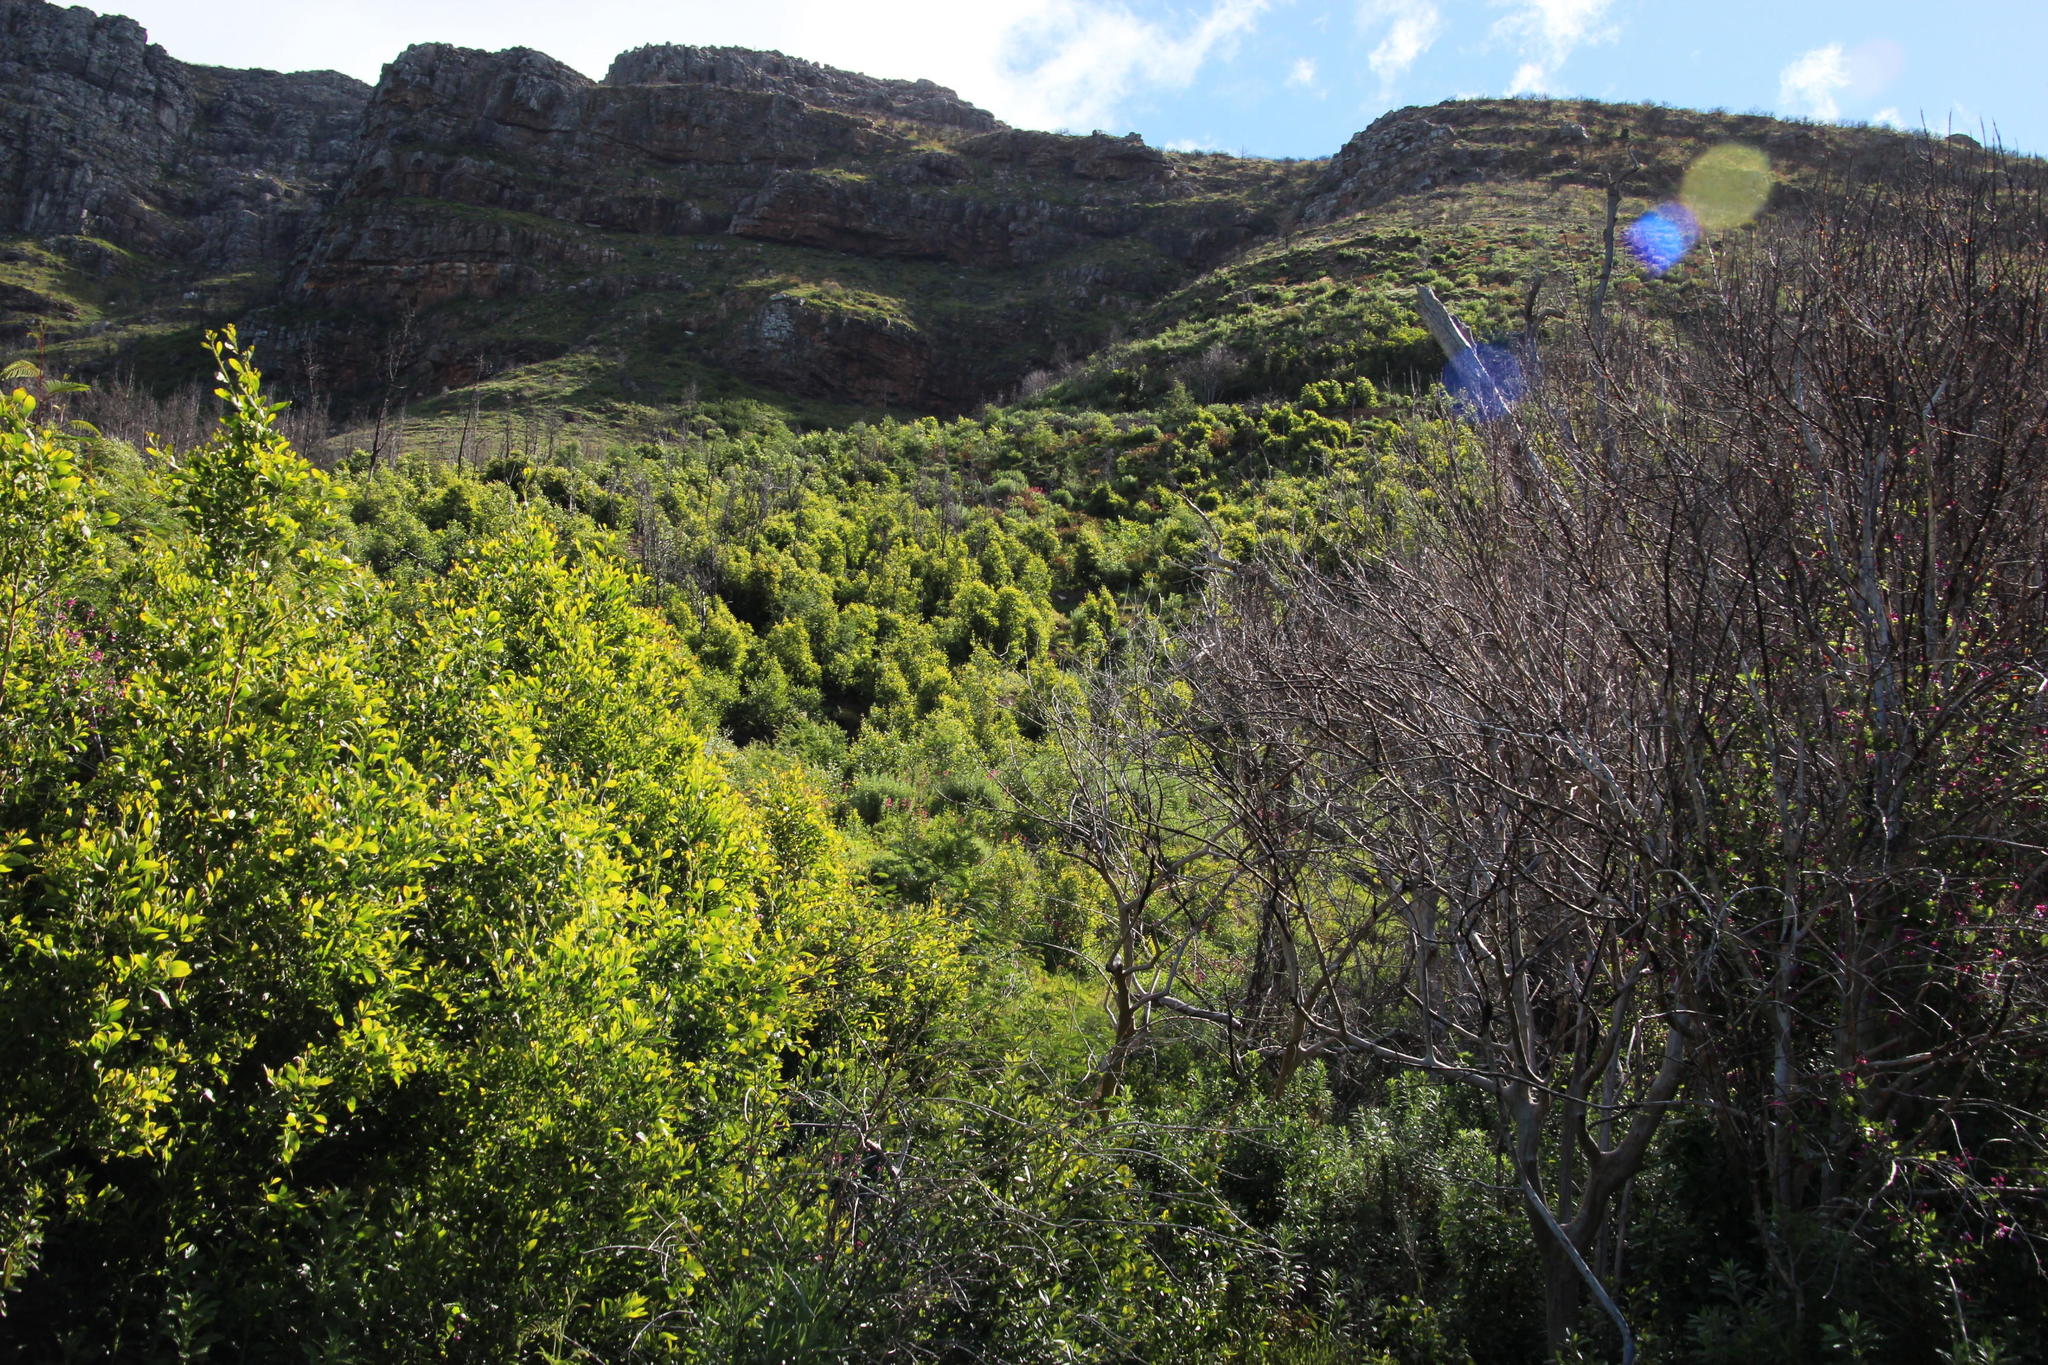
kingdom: Plantae
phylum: Tracheophyta
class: Magnoliopsida
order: Fabales
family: Fabaceae
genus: Acacia
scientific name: Acacia melanoxylon
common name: Blackwood
